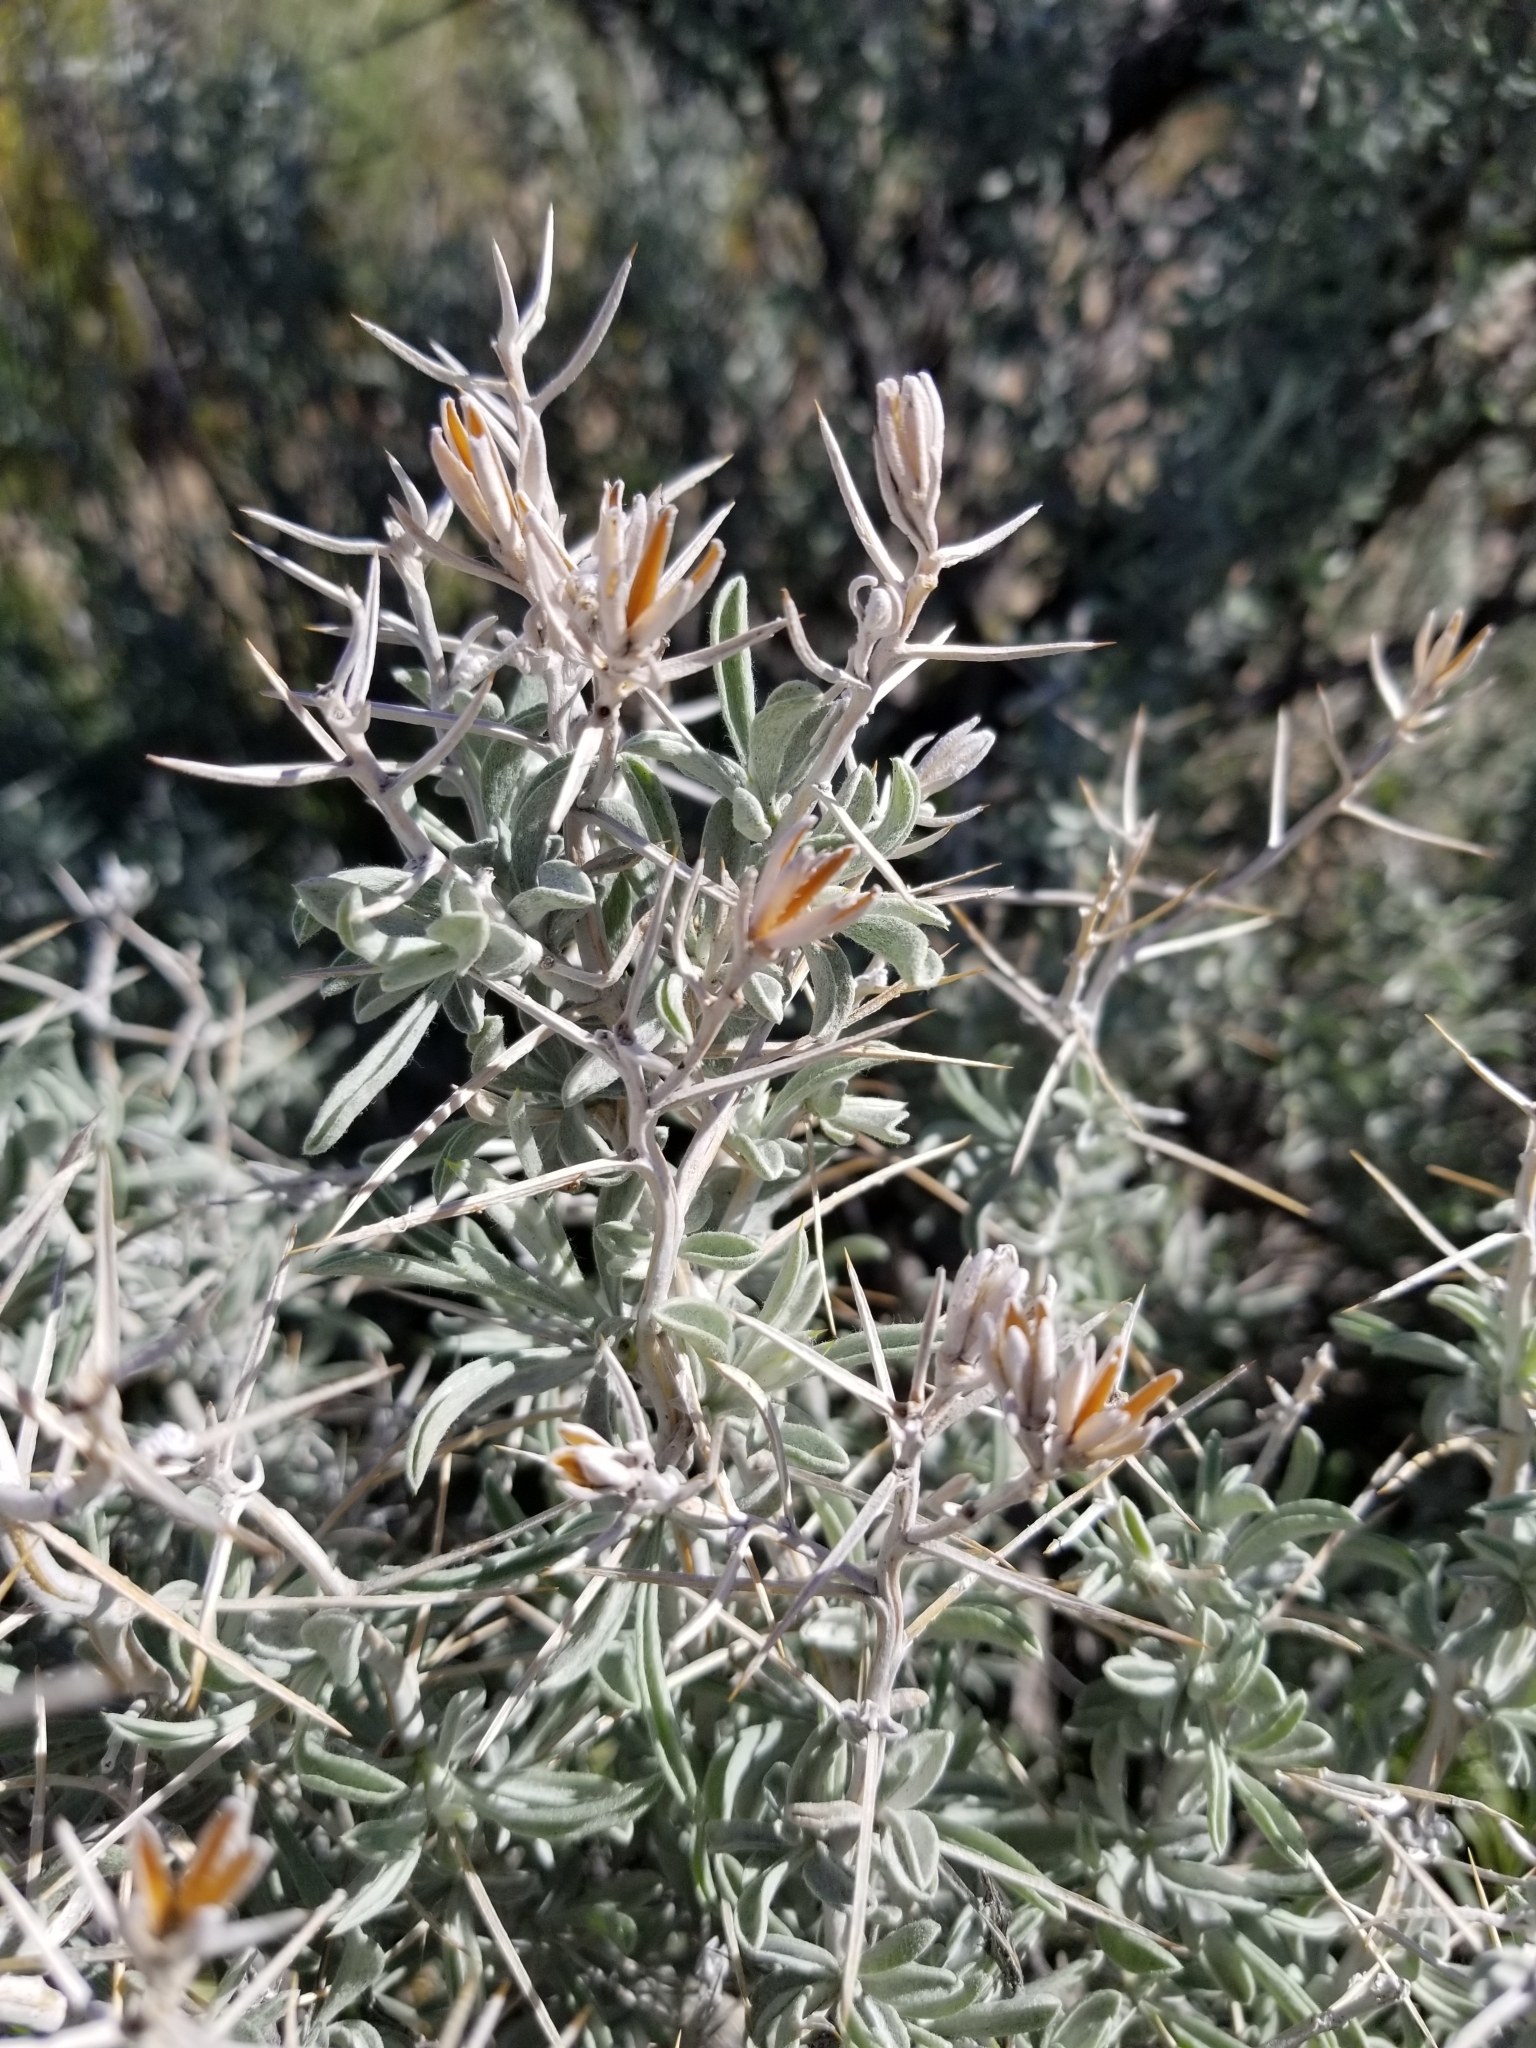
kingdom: Plantae
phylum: Tracheophyta
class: Magnoliopsida
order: Asterales
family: Asteraceae
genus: Tetradymia
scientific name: Tetradymia stenolepis
